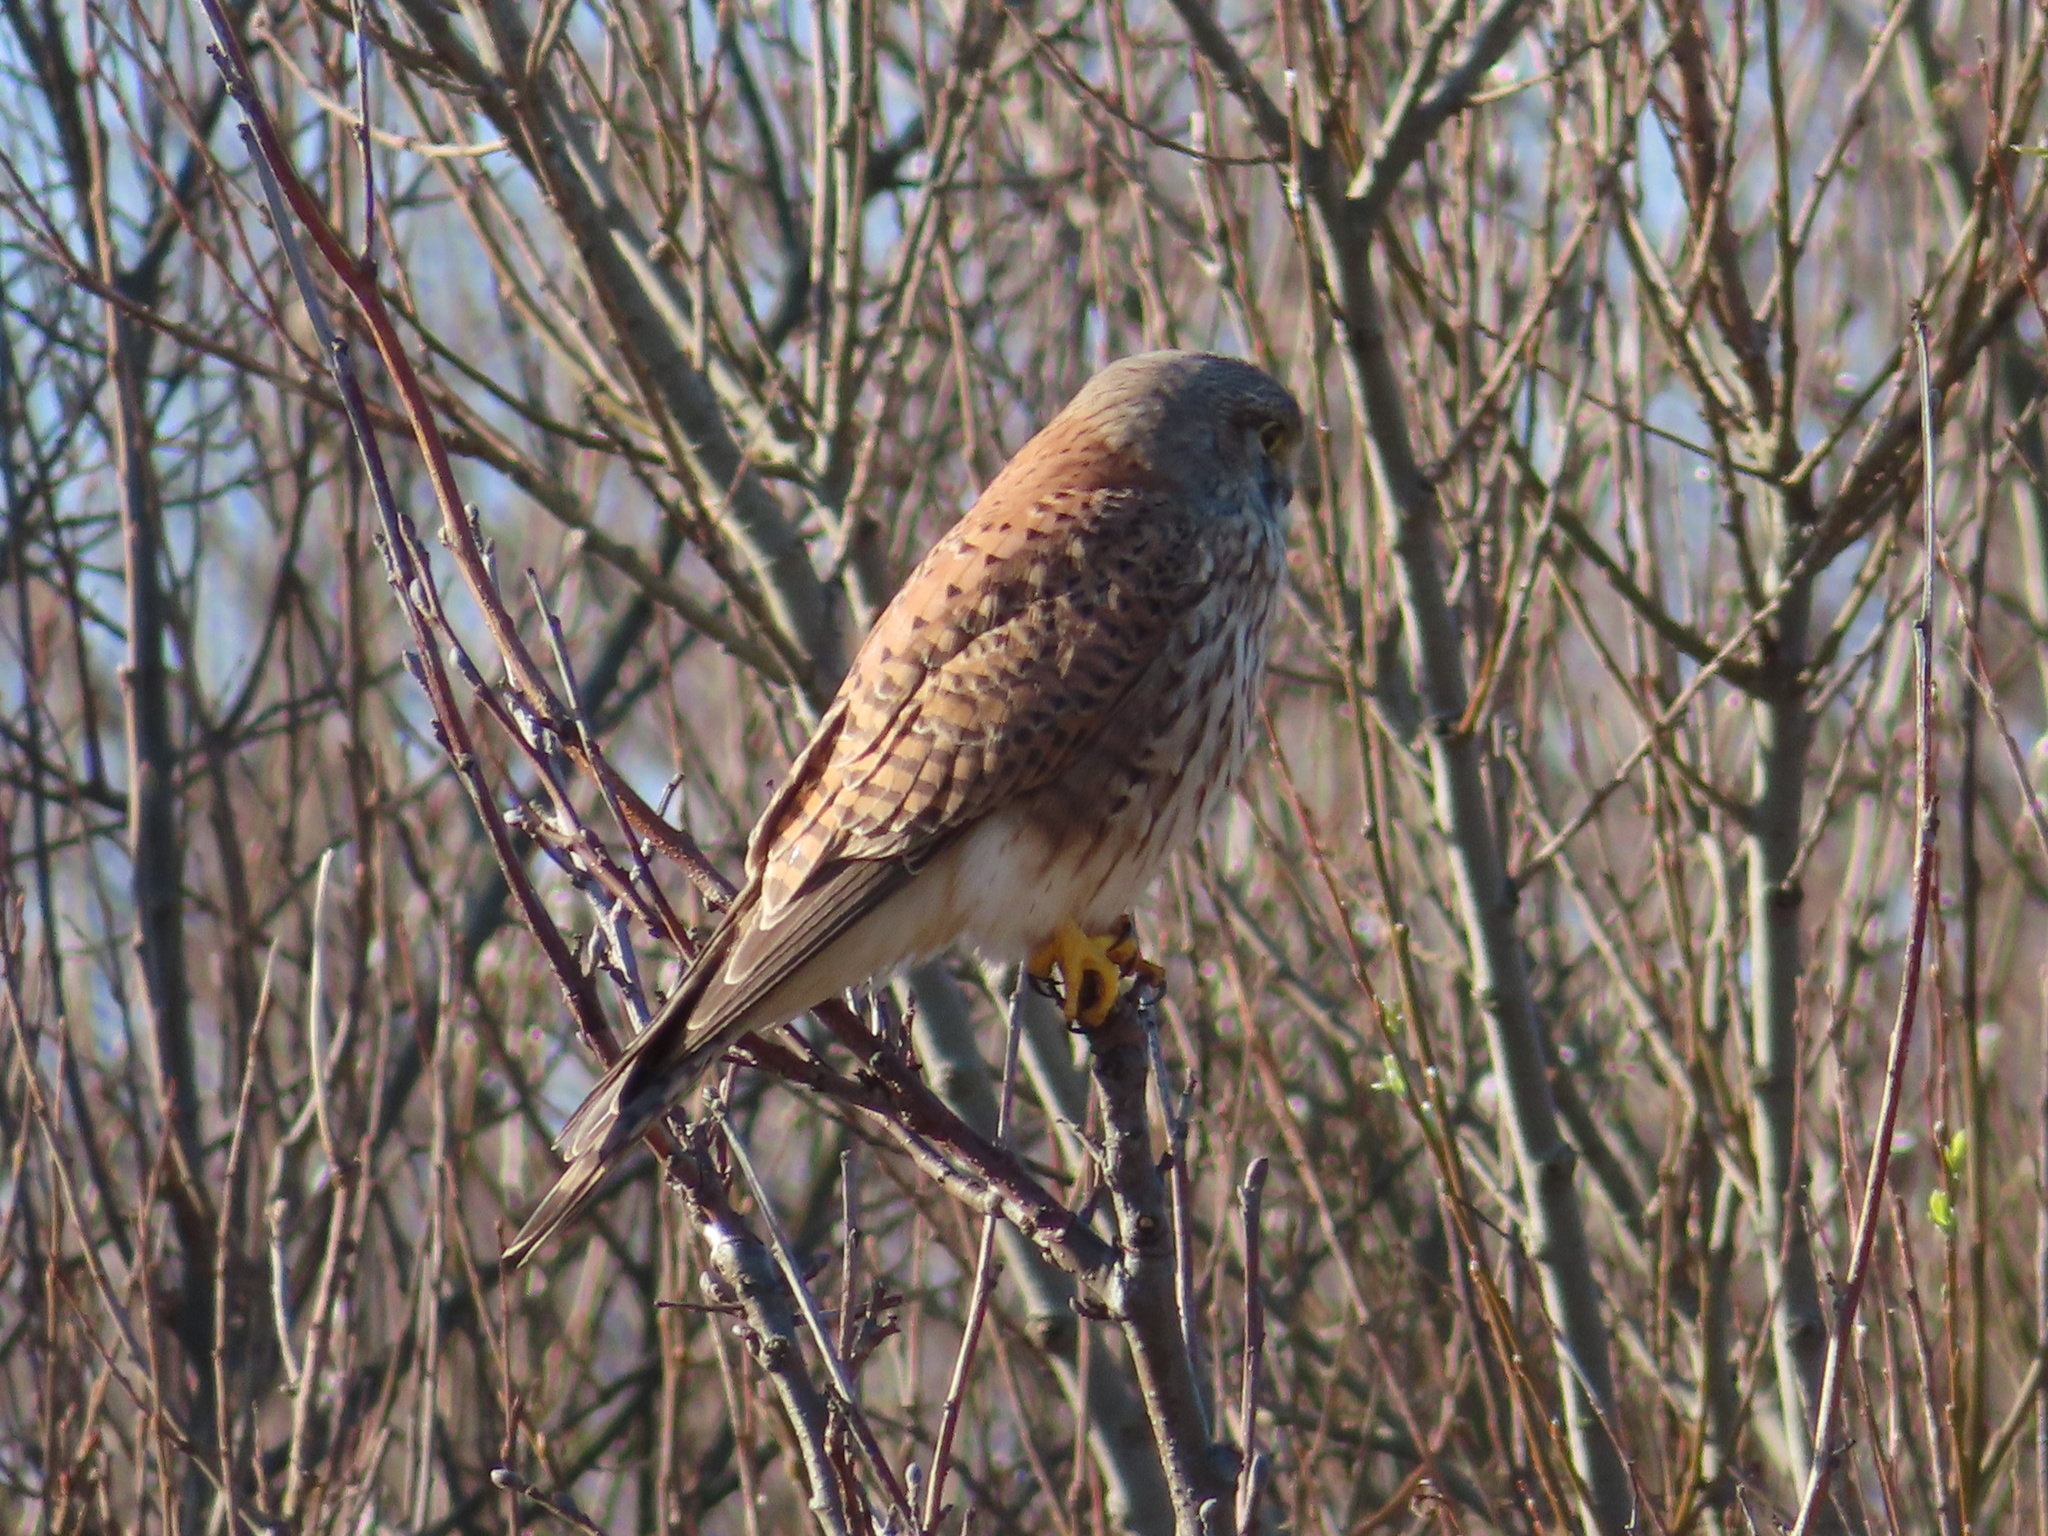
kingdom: Animalia
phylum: Chordata
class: Aves
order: Falconiformes
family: Falconidae
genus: Falco
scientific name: Falco tinnunculus
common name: Common kestrel
